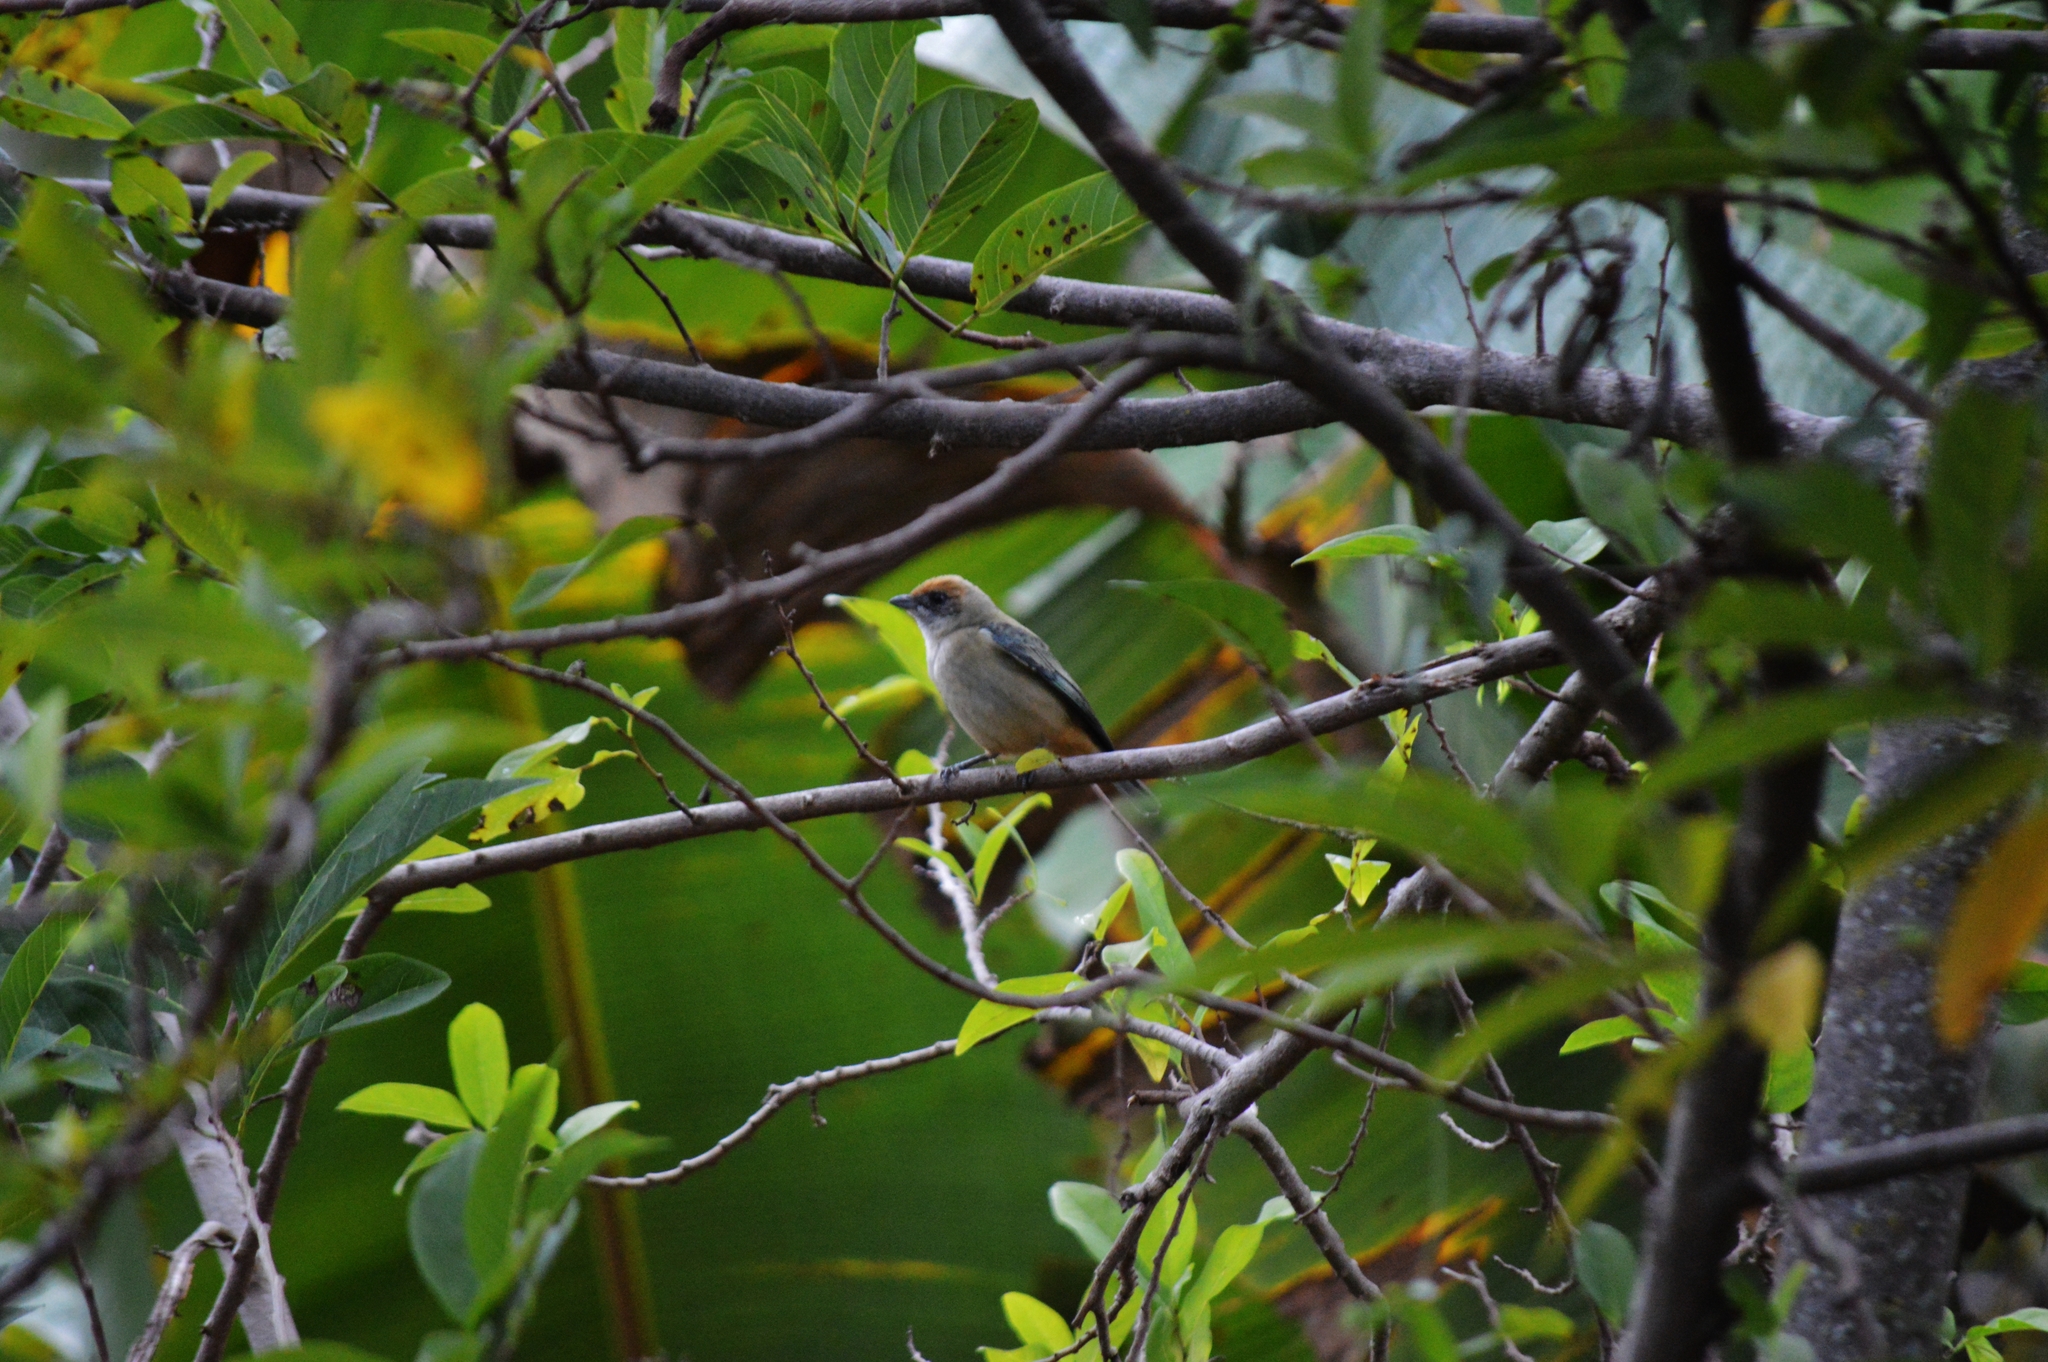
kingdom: Animalia
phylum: Chordata
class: Aves
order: Passeriformes
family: Thraupidae
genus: Stilpnia
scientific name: Stilpnia cayana
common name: Burnished-buff tanager
